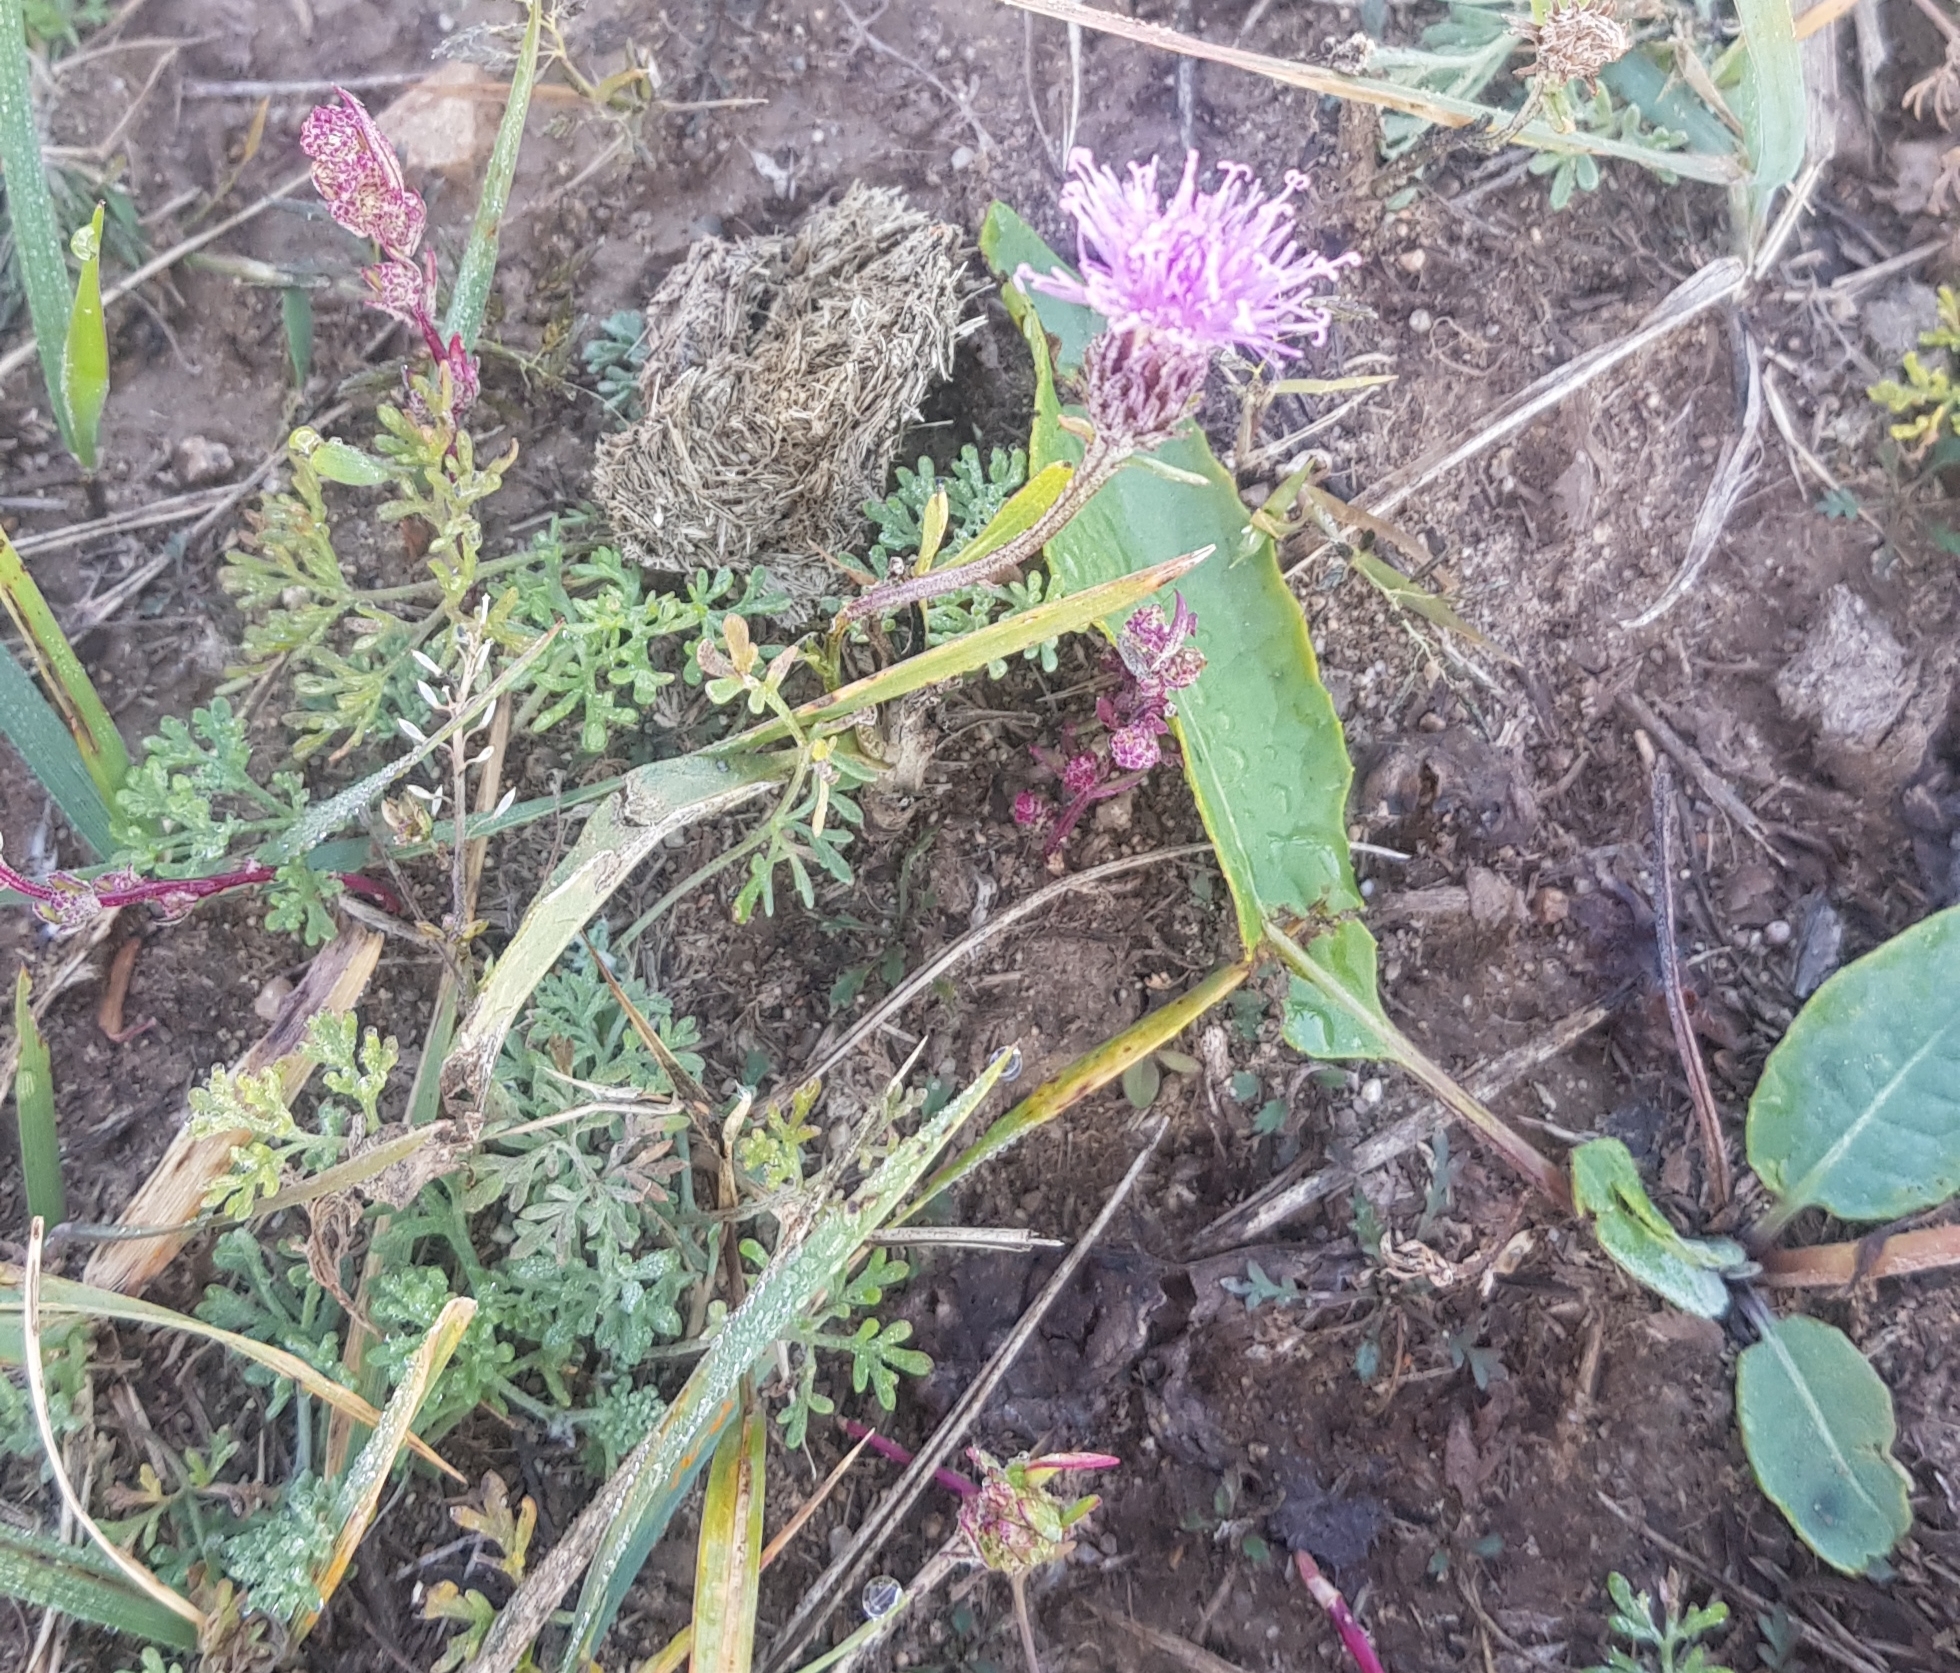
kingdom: Plantae
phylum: Tracheophyta
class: Magnoliopsida
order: Asterales
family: Asteraceae
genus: Saussurea
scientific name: Saussurea amara
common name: Alberta sawwort
